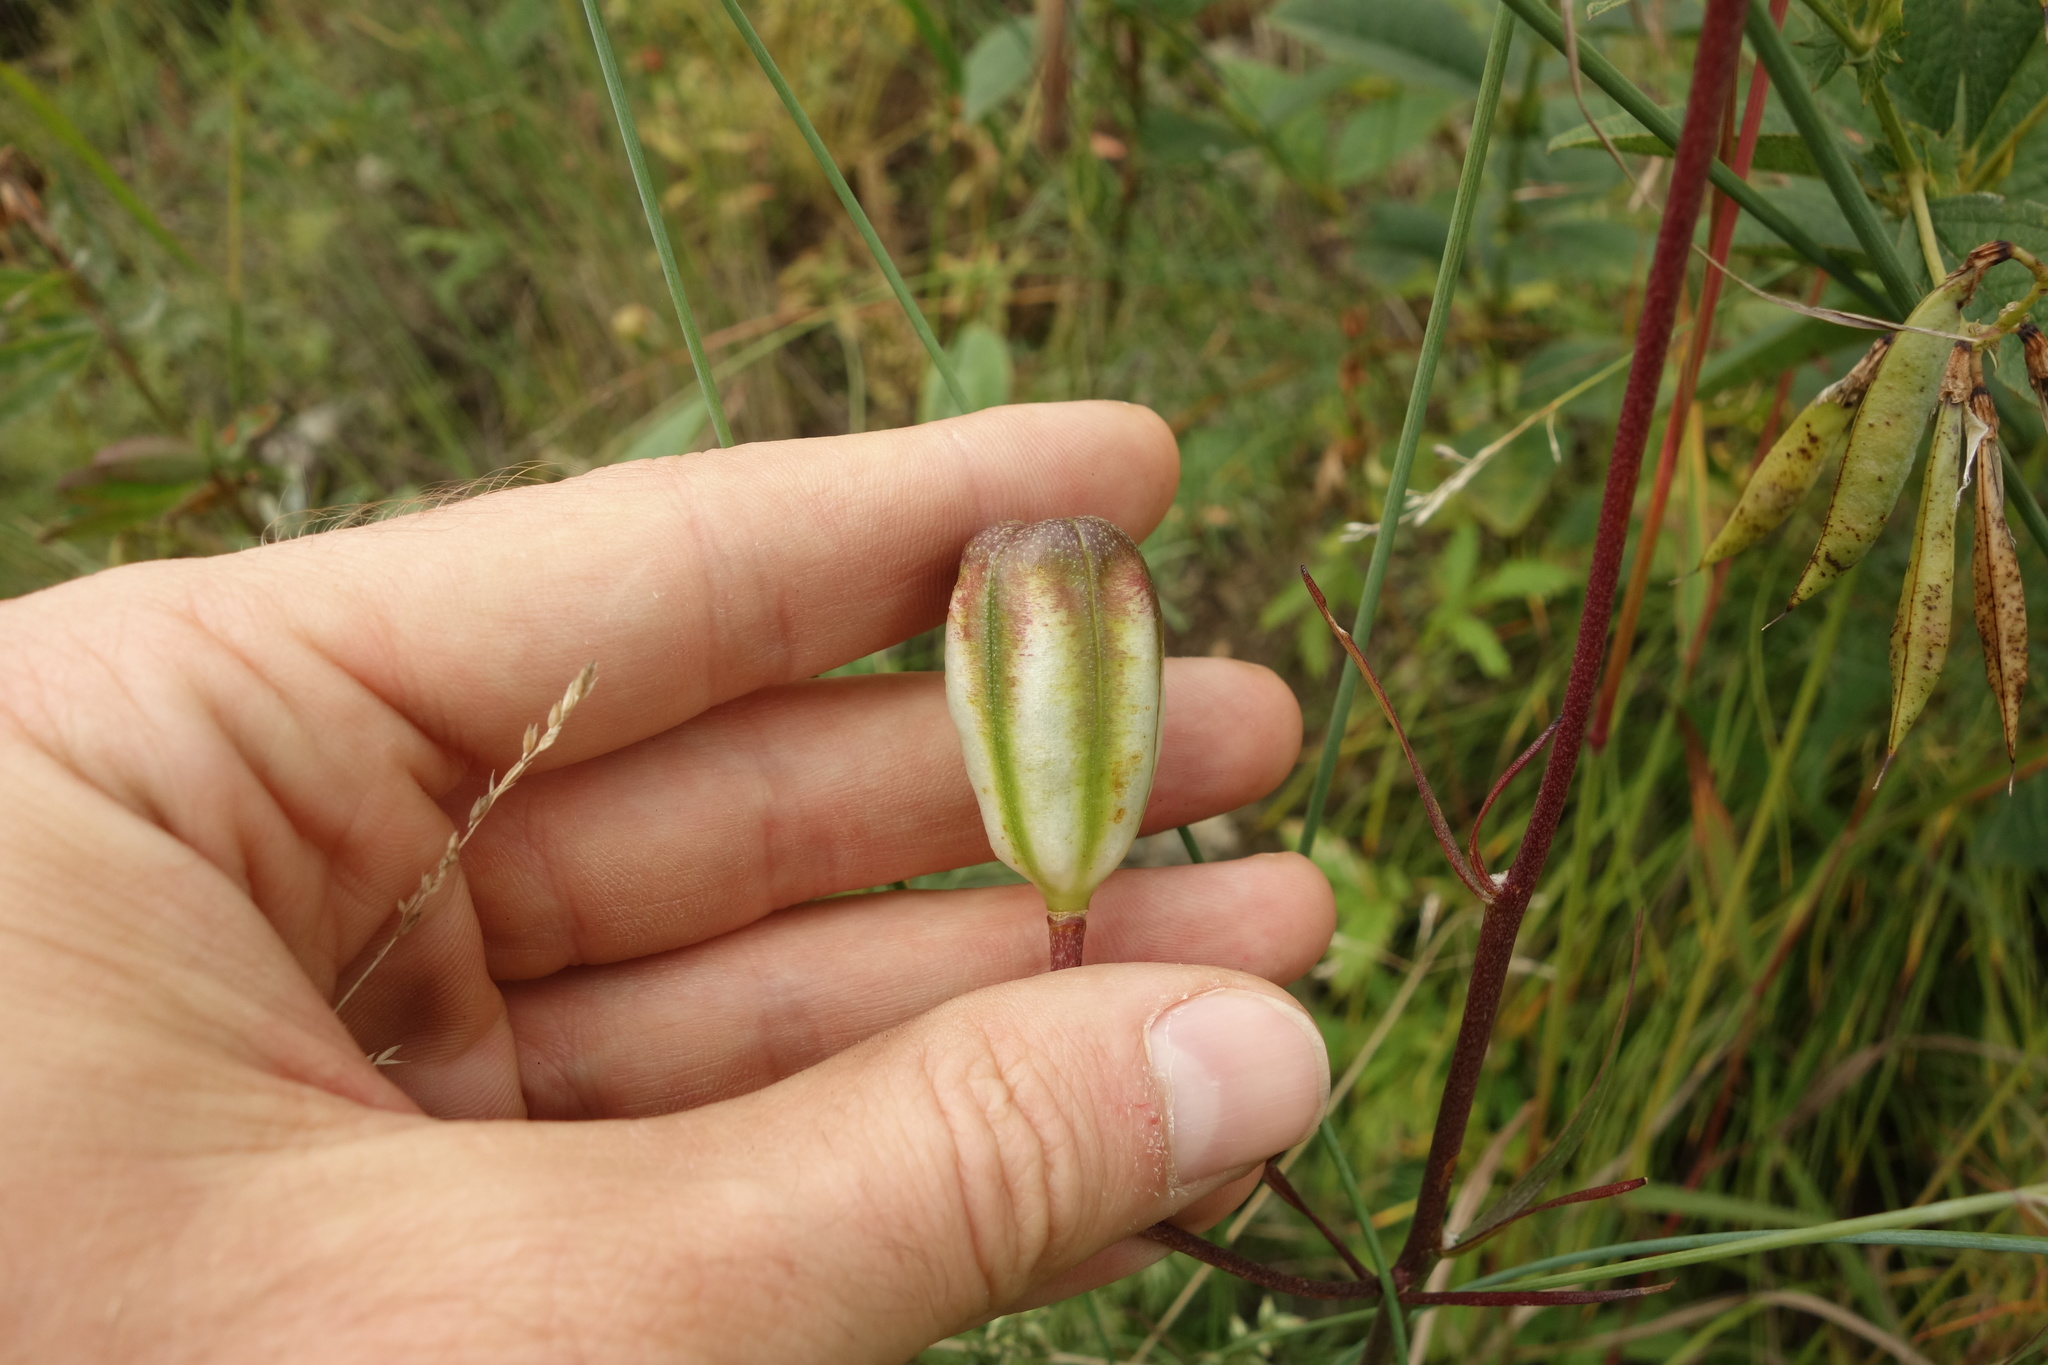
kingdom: Plantae
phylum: Tracheophyta
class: Liliopsida
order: Liliales
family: Liliaceae
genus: Lilium
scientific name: Lilium pumilum
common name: Coral lily
